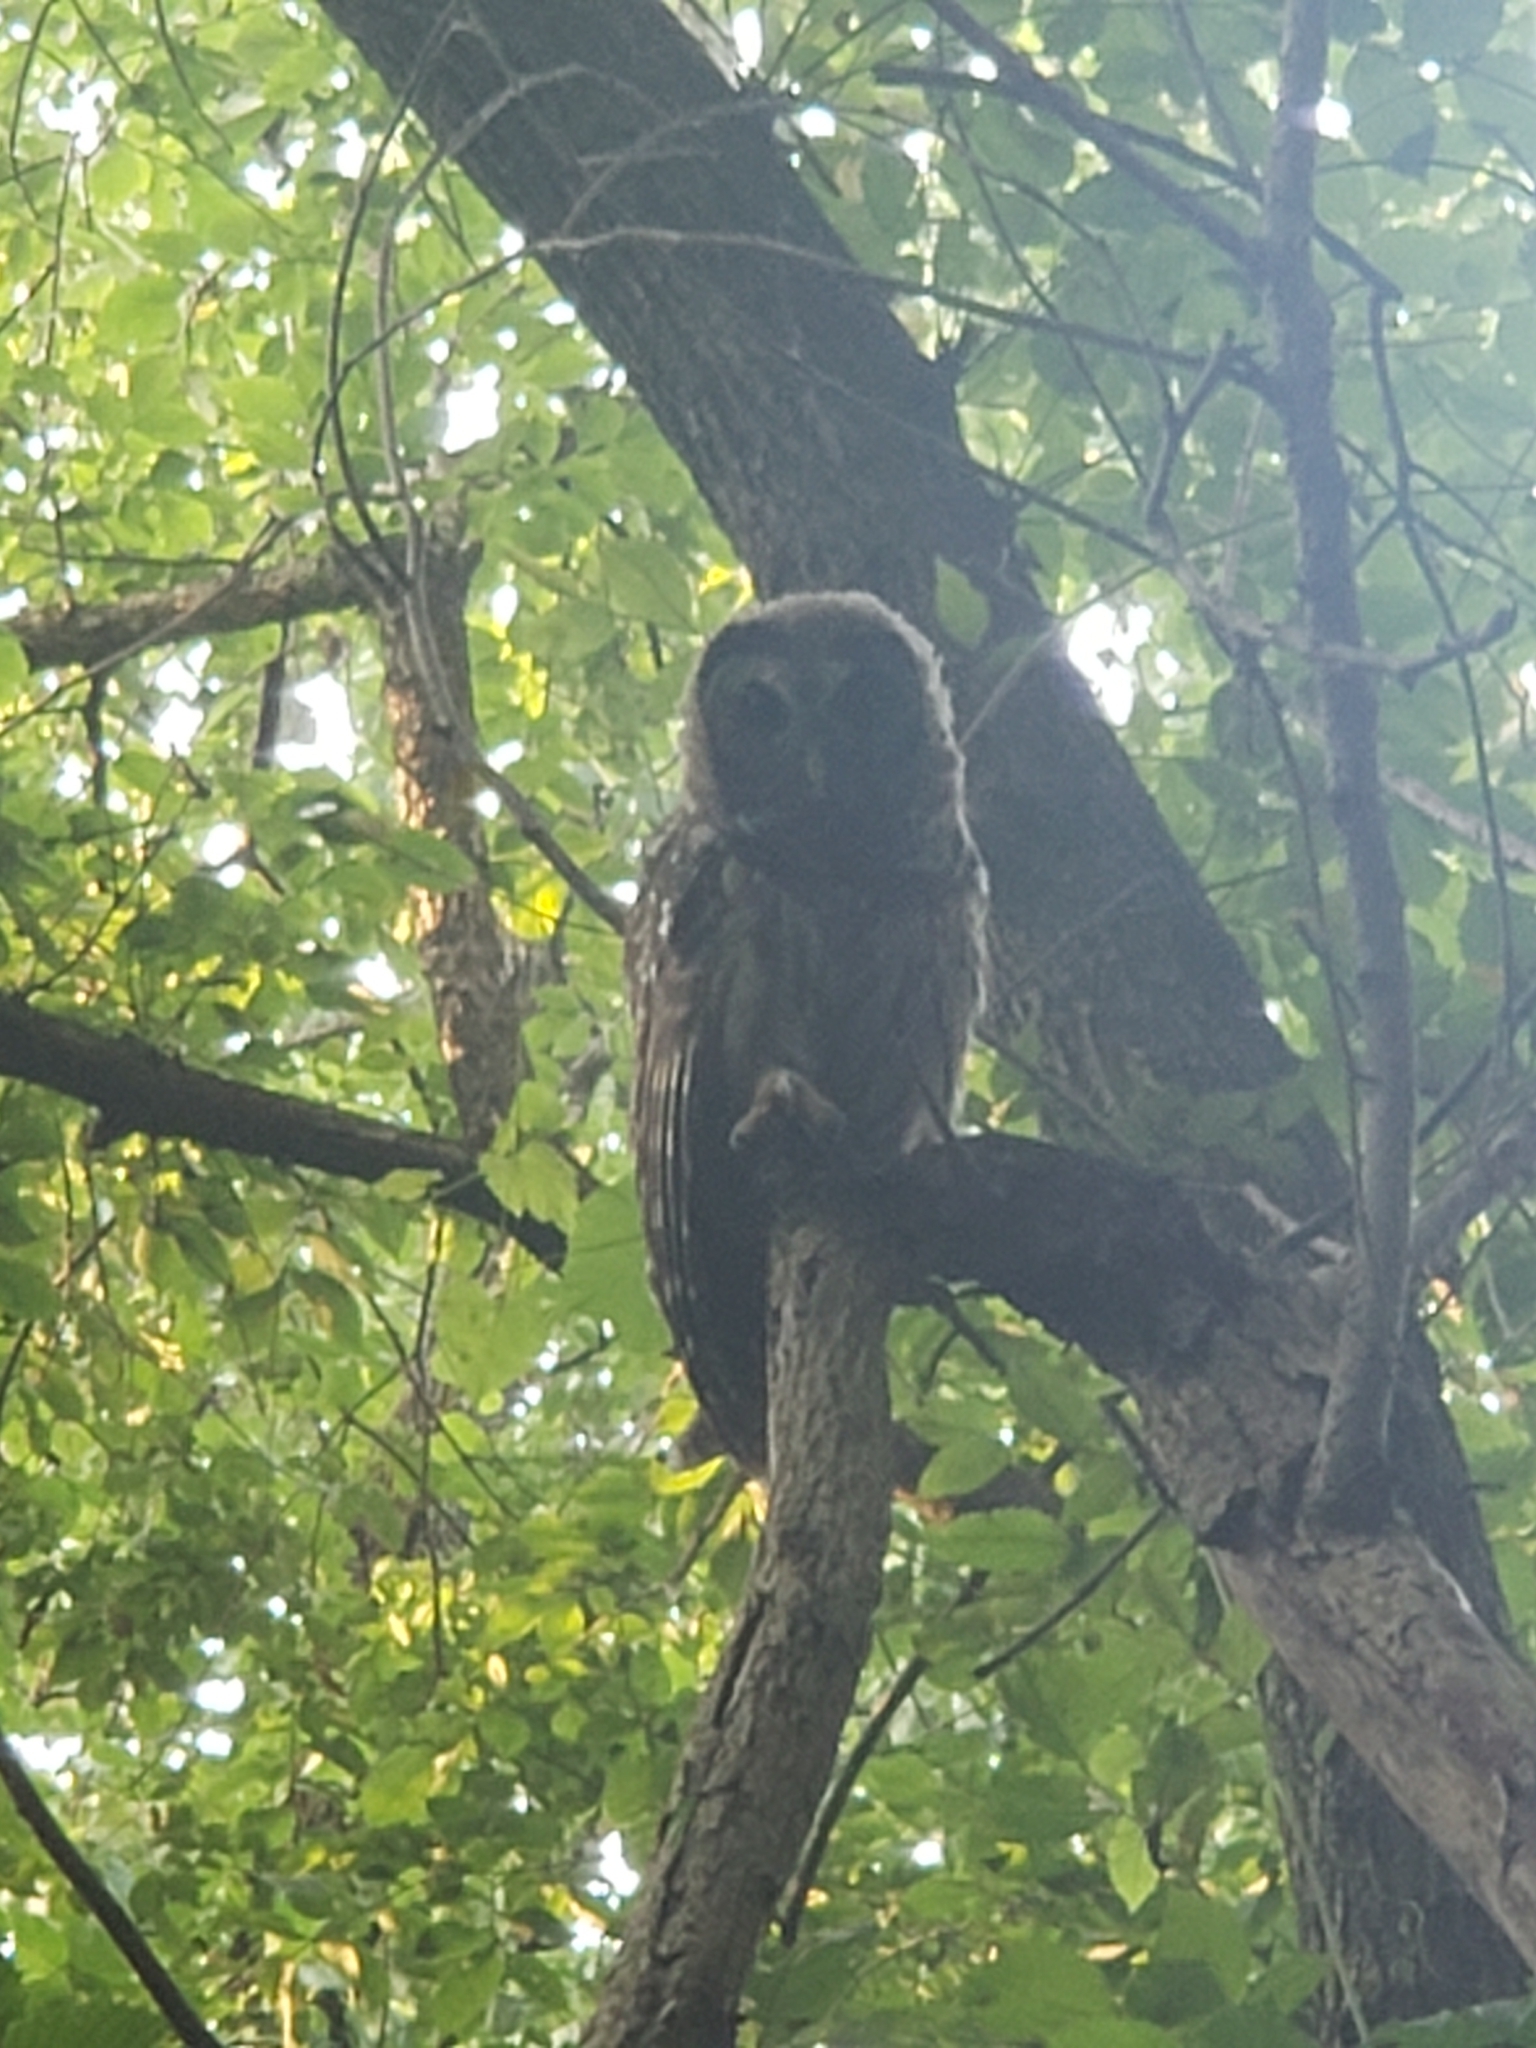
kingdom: Animalia
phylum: Chordata
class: Aves
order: Strigiformes
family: Strigidae
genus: Strix
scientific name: Strix varia
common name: Barred owl
